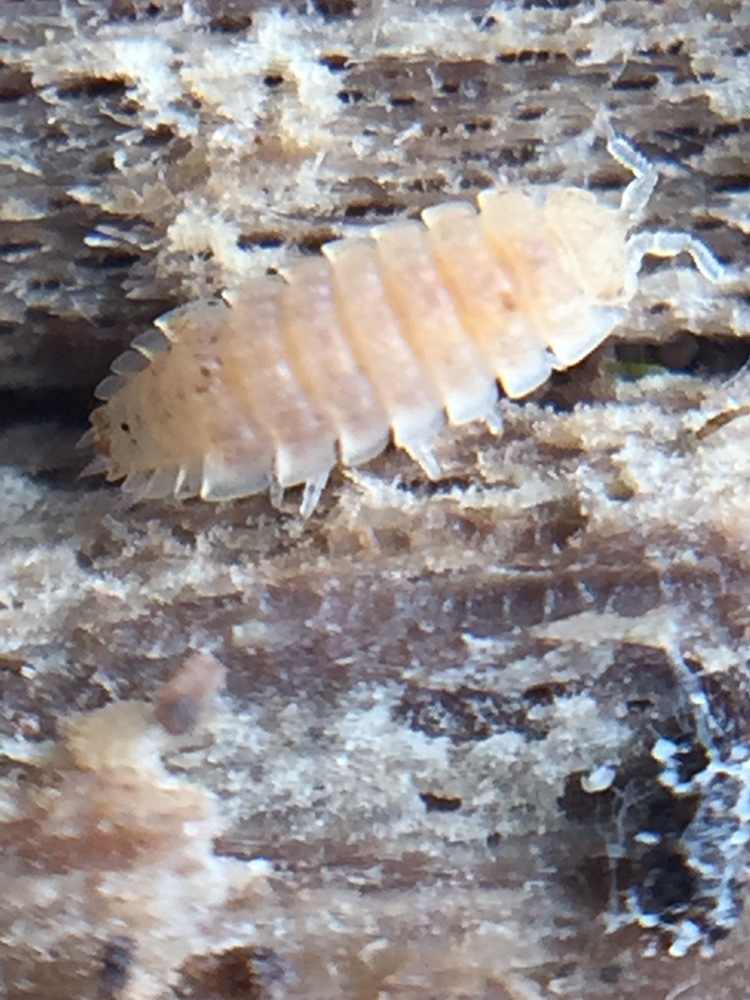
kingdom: Animalia
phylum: Arthropoda
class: Malacostraca
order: Isopoda
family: Trichoniscidae
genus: Haplophthalmus
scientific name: Haplophthalmus danicus
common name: Pillbug
